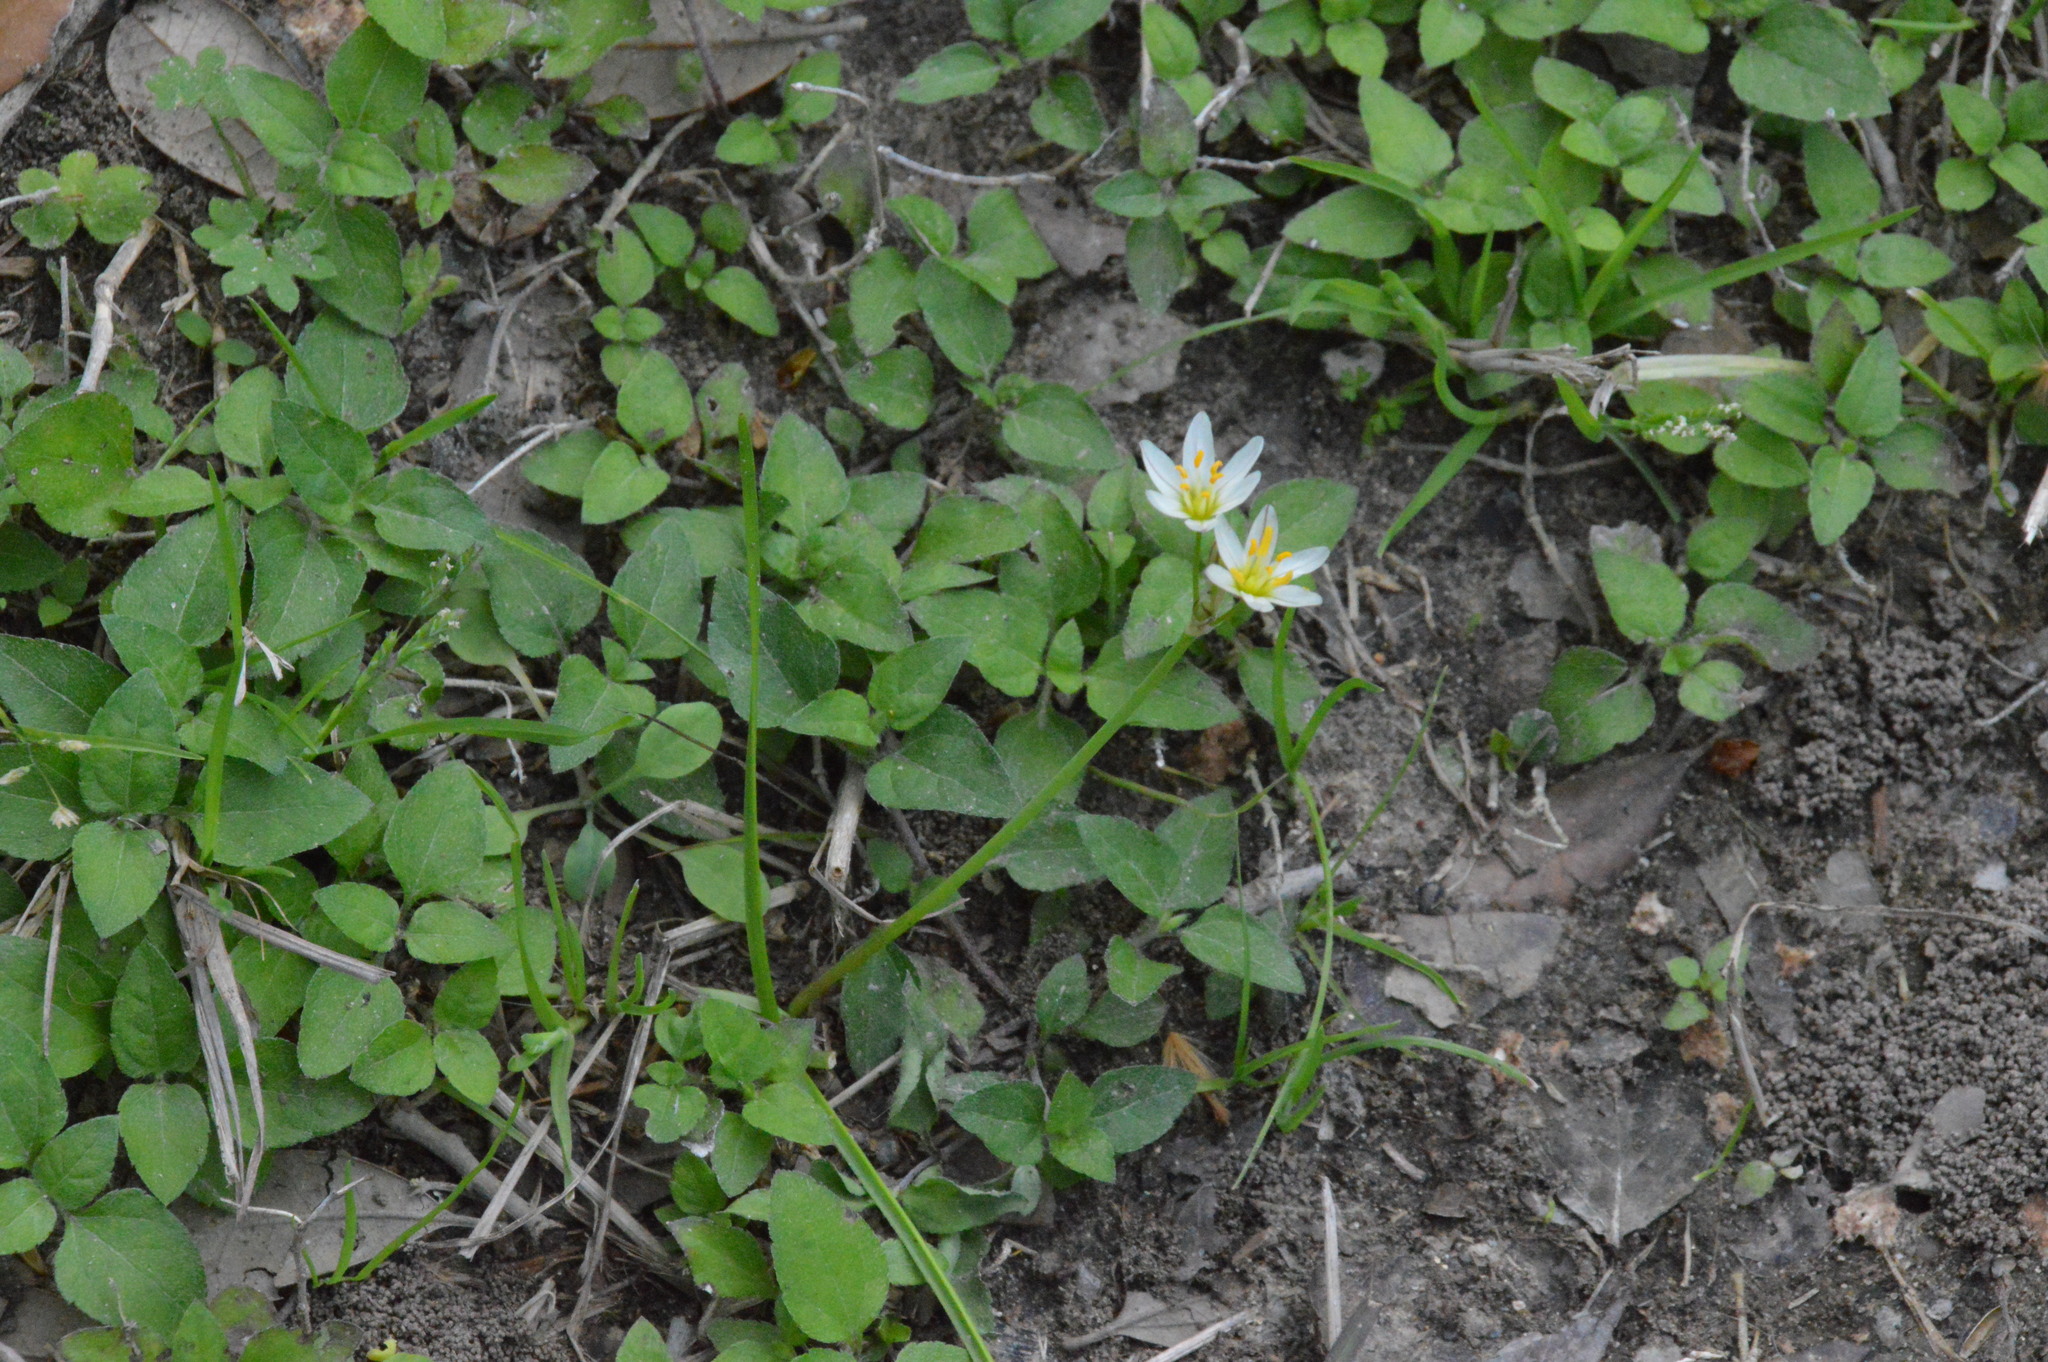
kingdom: Plantae
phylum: Tracheophyta
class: Liliopsida
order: Asparagales
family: Amaryllidaceae
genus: Nothoscordum
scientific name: Nothoscordum bivalve
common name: Crow-poison
